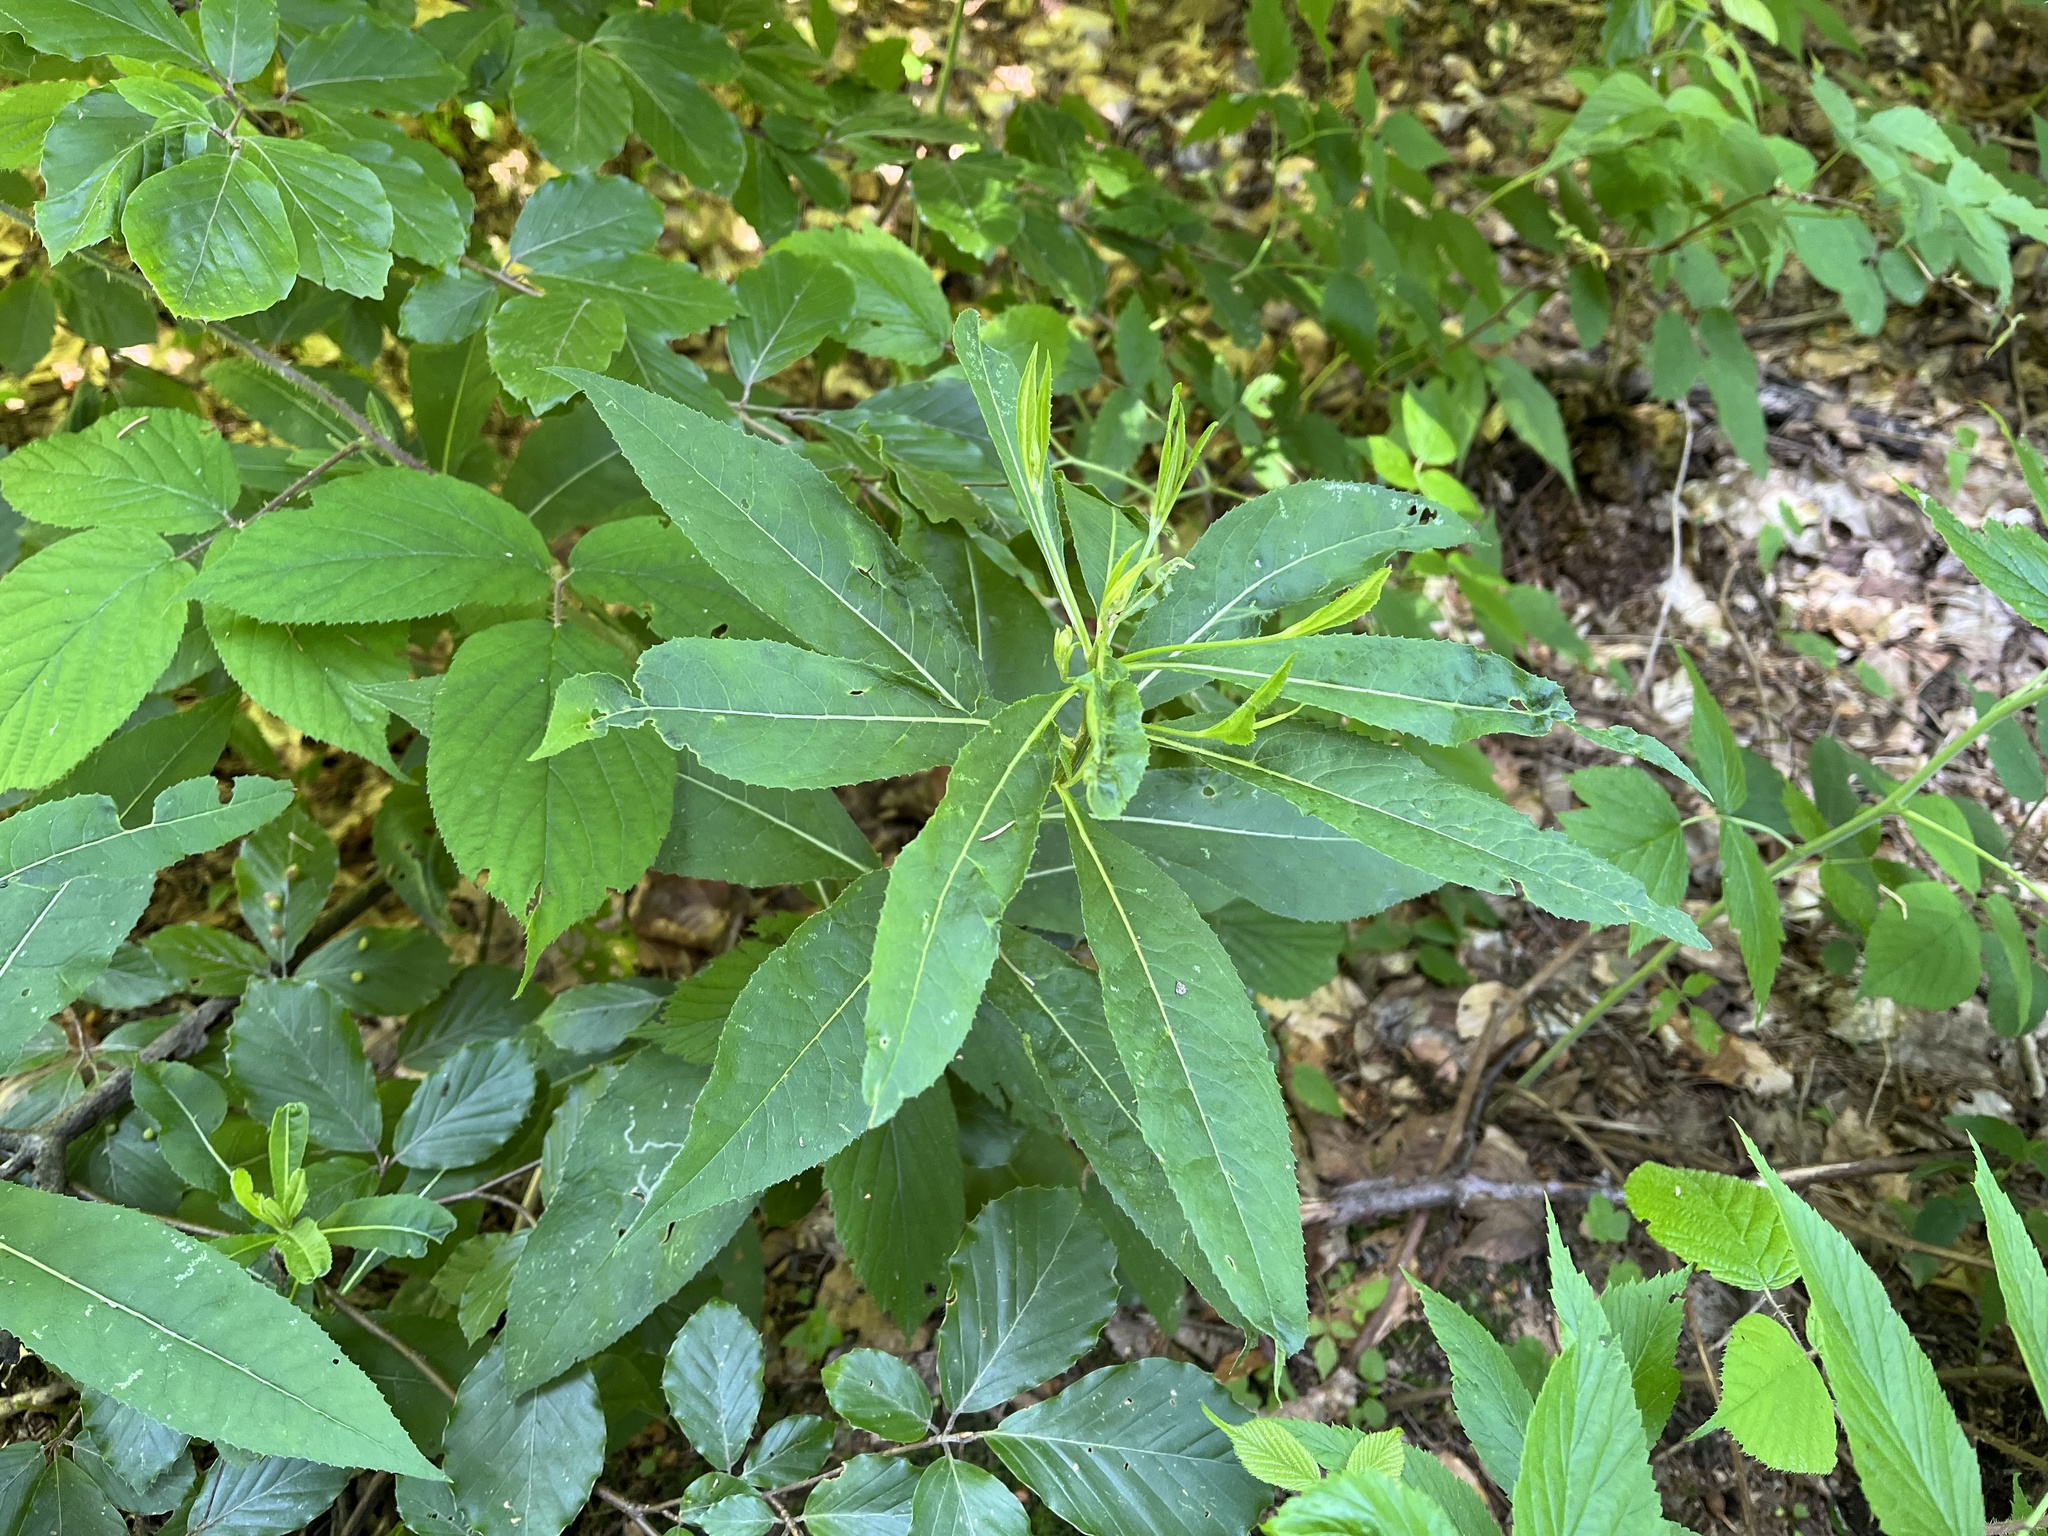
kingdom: Plantae
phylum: Tracheophyta
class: Magnoliopsida
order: Asterales
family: Asteraceae
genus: Senecio
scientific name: Senecio ovatus
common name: Wood ragwort
